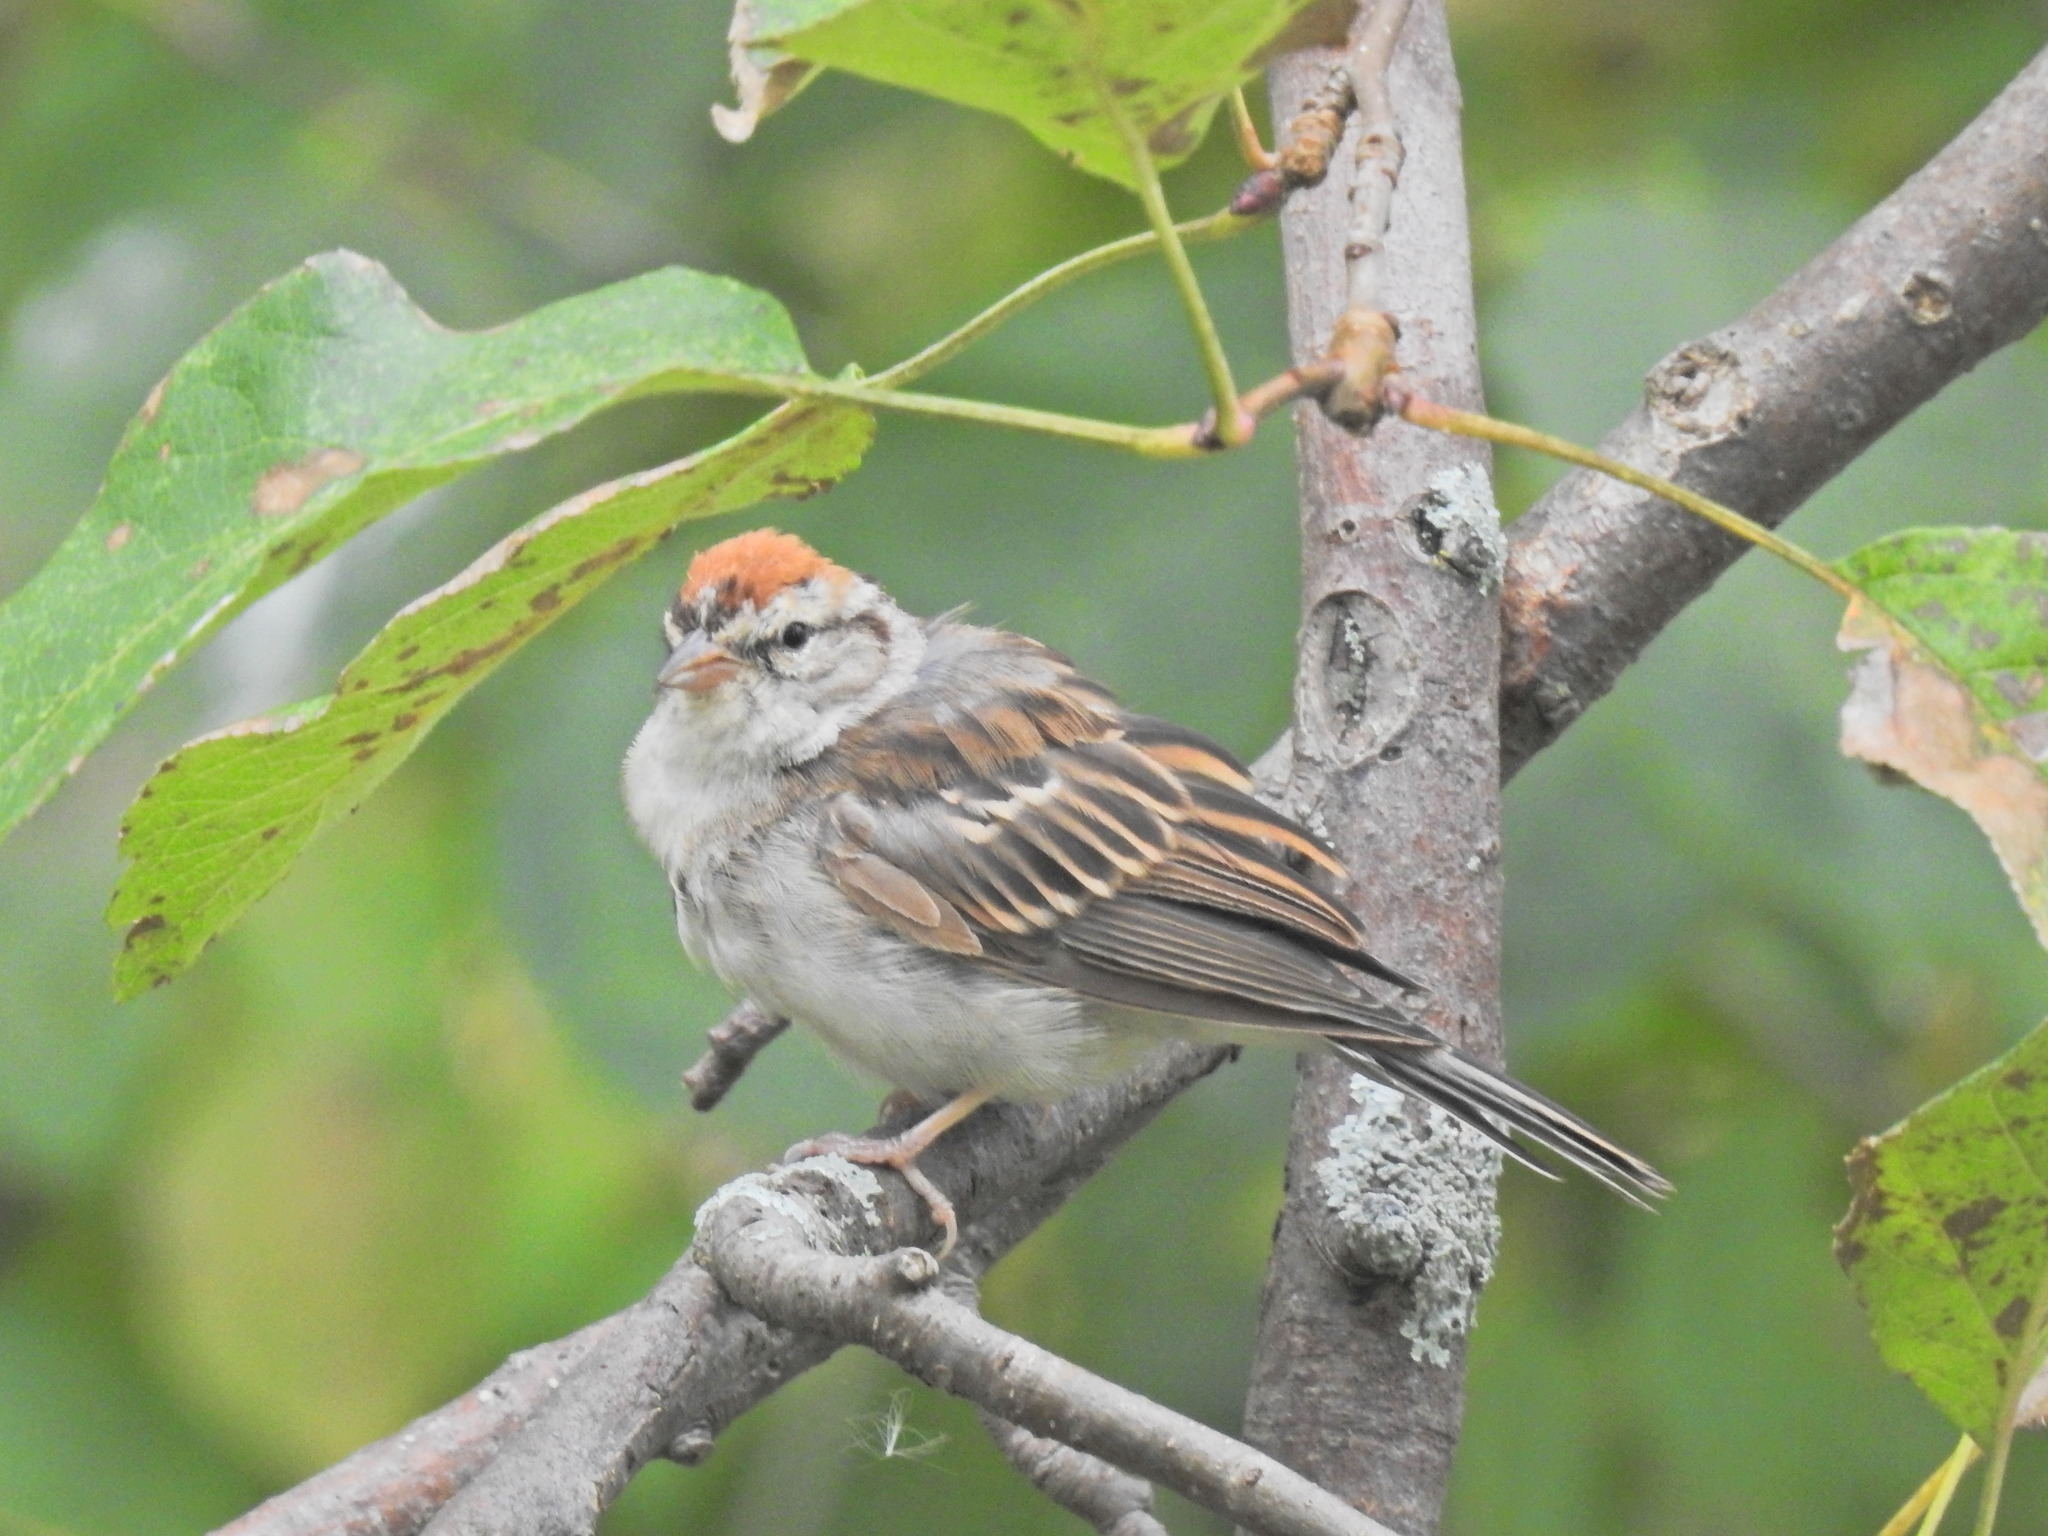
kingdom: Animalia
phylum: Chordata
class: Aves
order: Passeriformes
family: Passerellidae
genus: Spizella
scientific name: Spizella passerina
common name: Chipping sparrow
